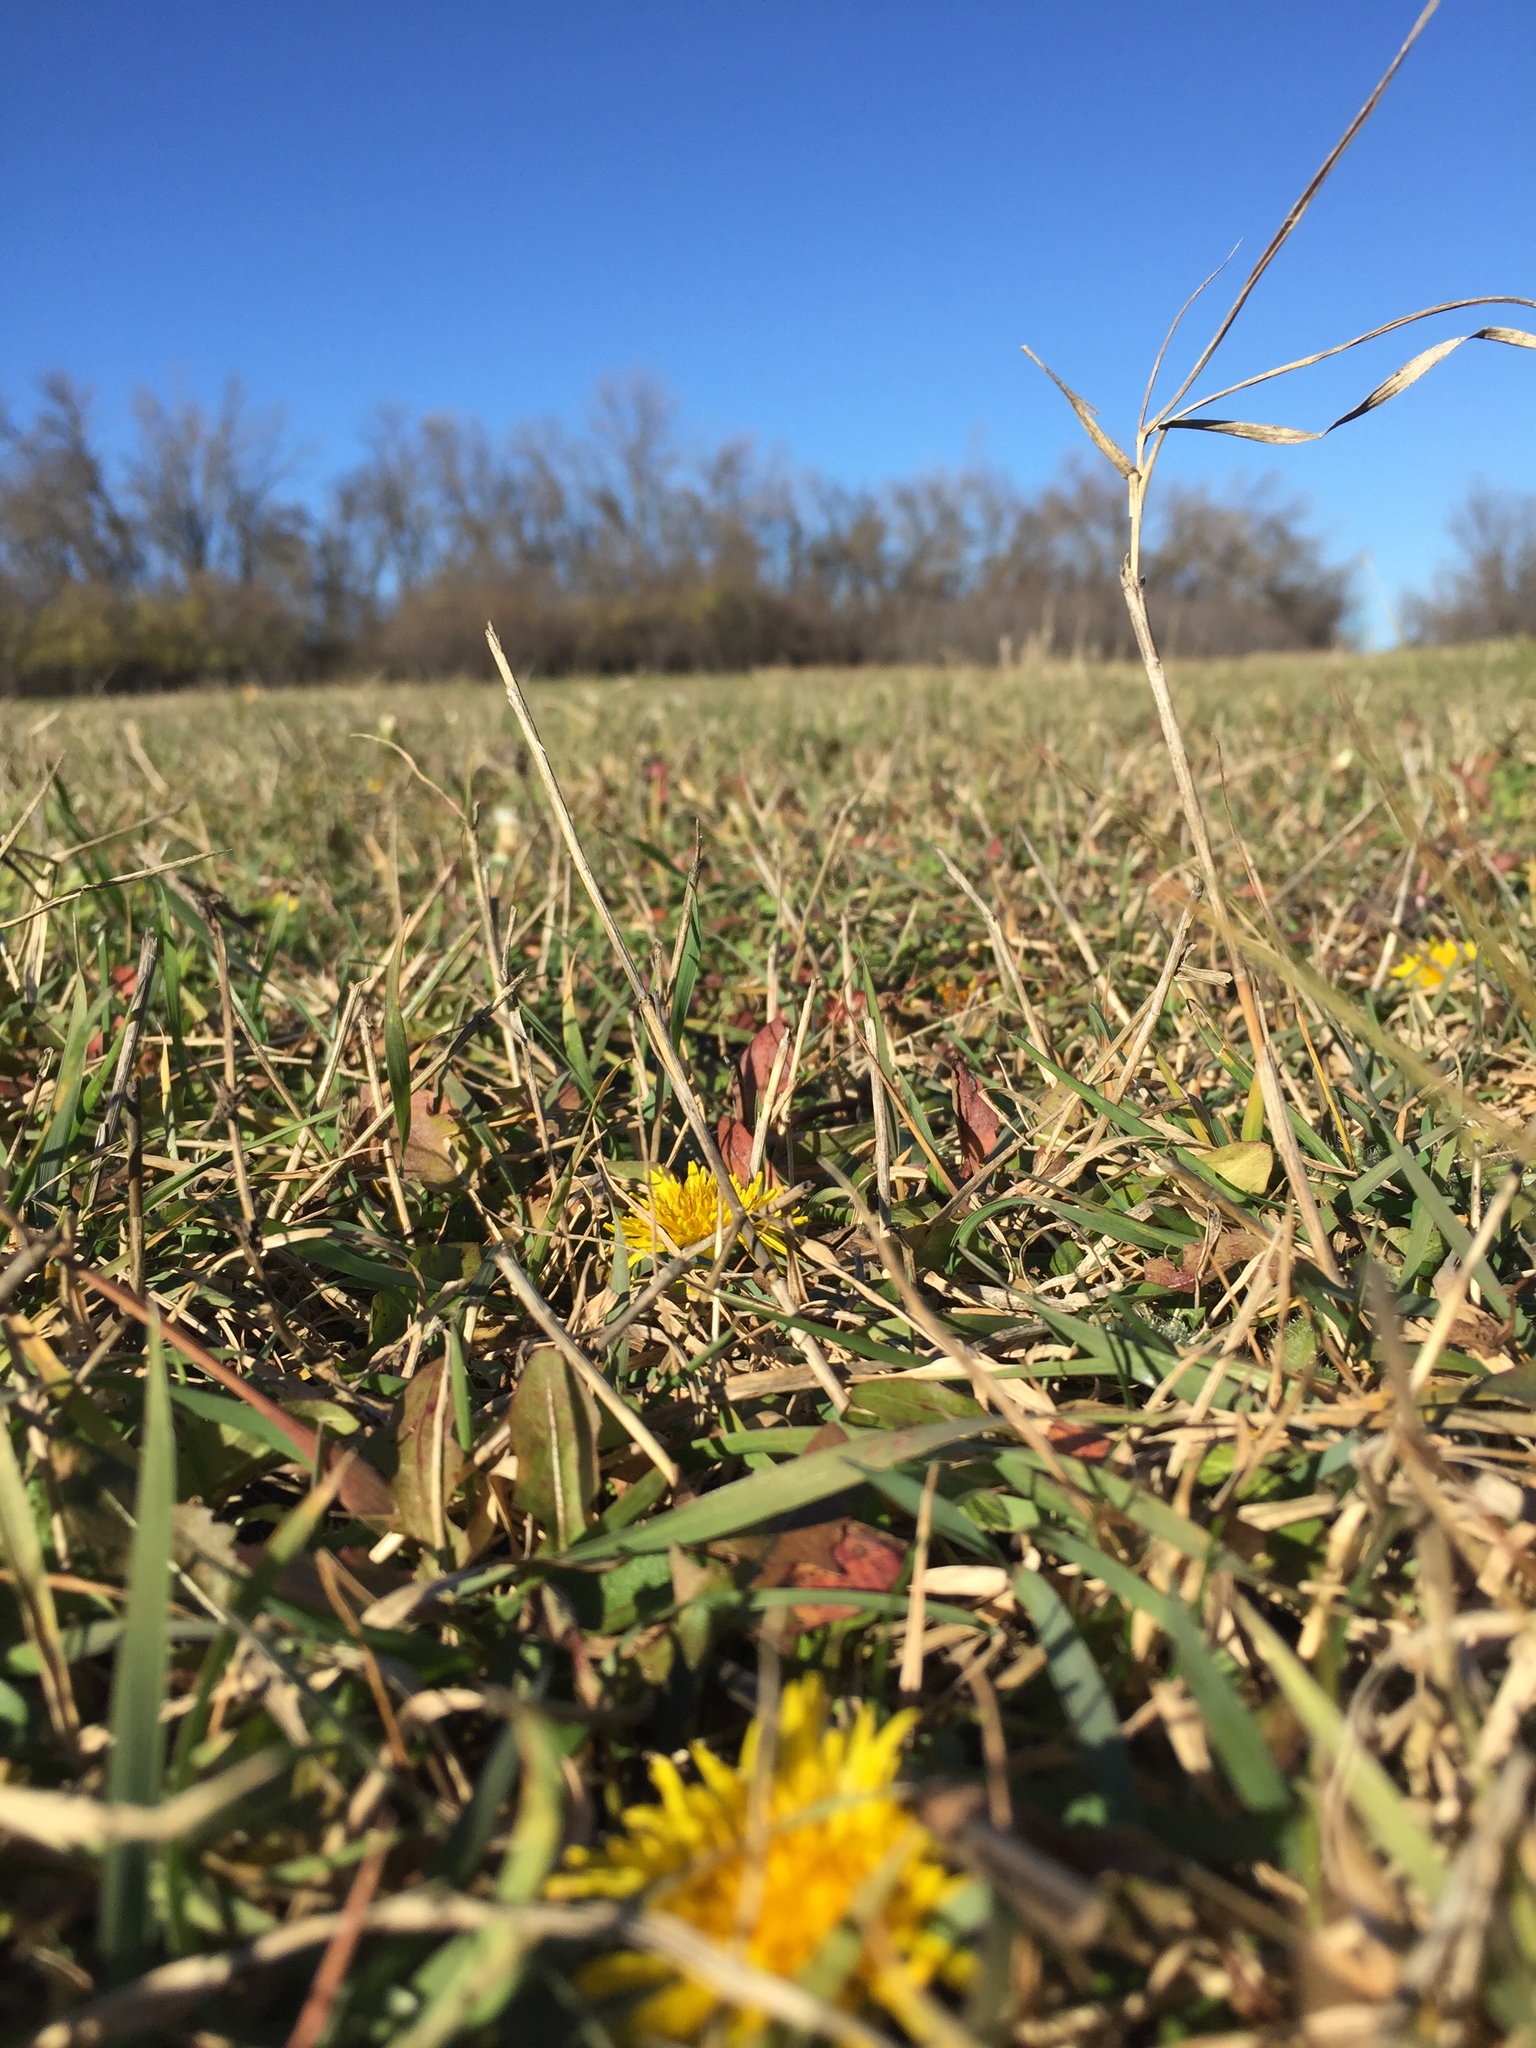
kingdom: Plantae
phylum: Tracheophyta
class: Magnoliopsida
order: Asterales
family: Asteraceae
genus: Taraxacum
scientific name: Taraxacum serotinum
